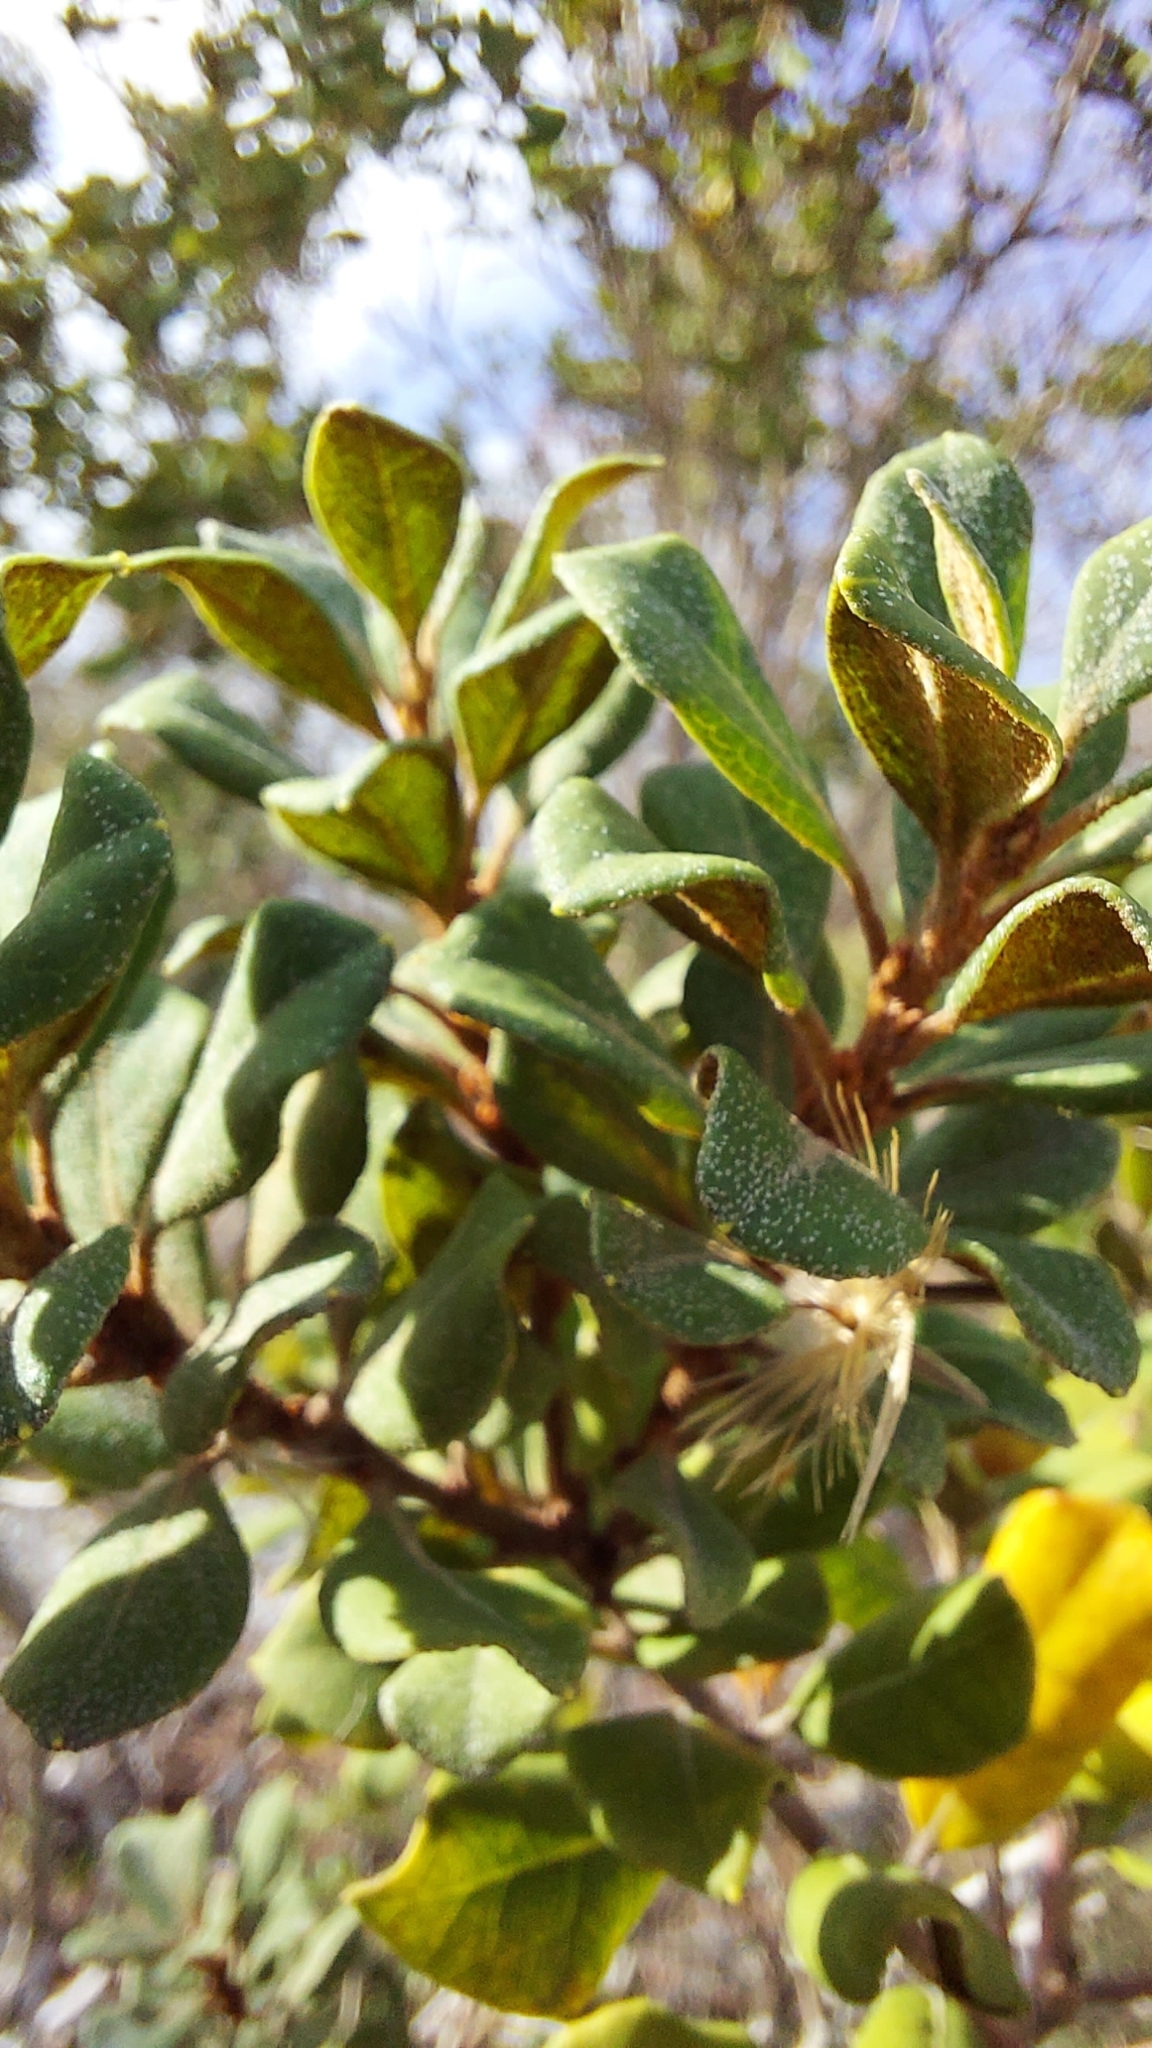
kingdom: Plantae
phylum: Tracheophyta
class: Magnoliopsida
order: Ericales
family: Ericaceae
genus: Lyonia
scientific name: Lyonia ferruginea
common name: Rusty lyonia
